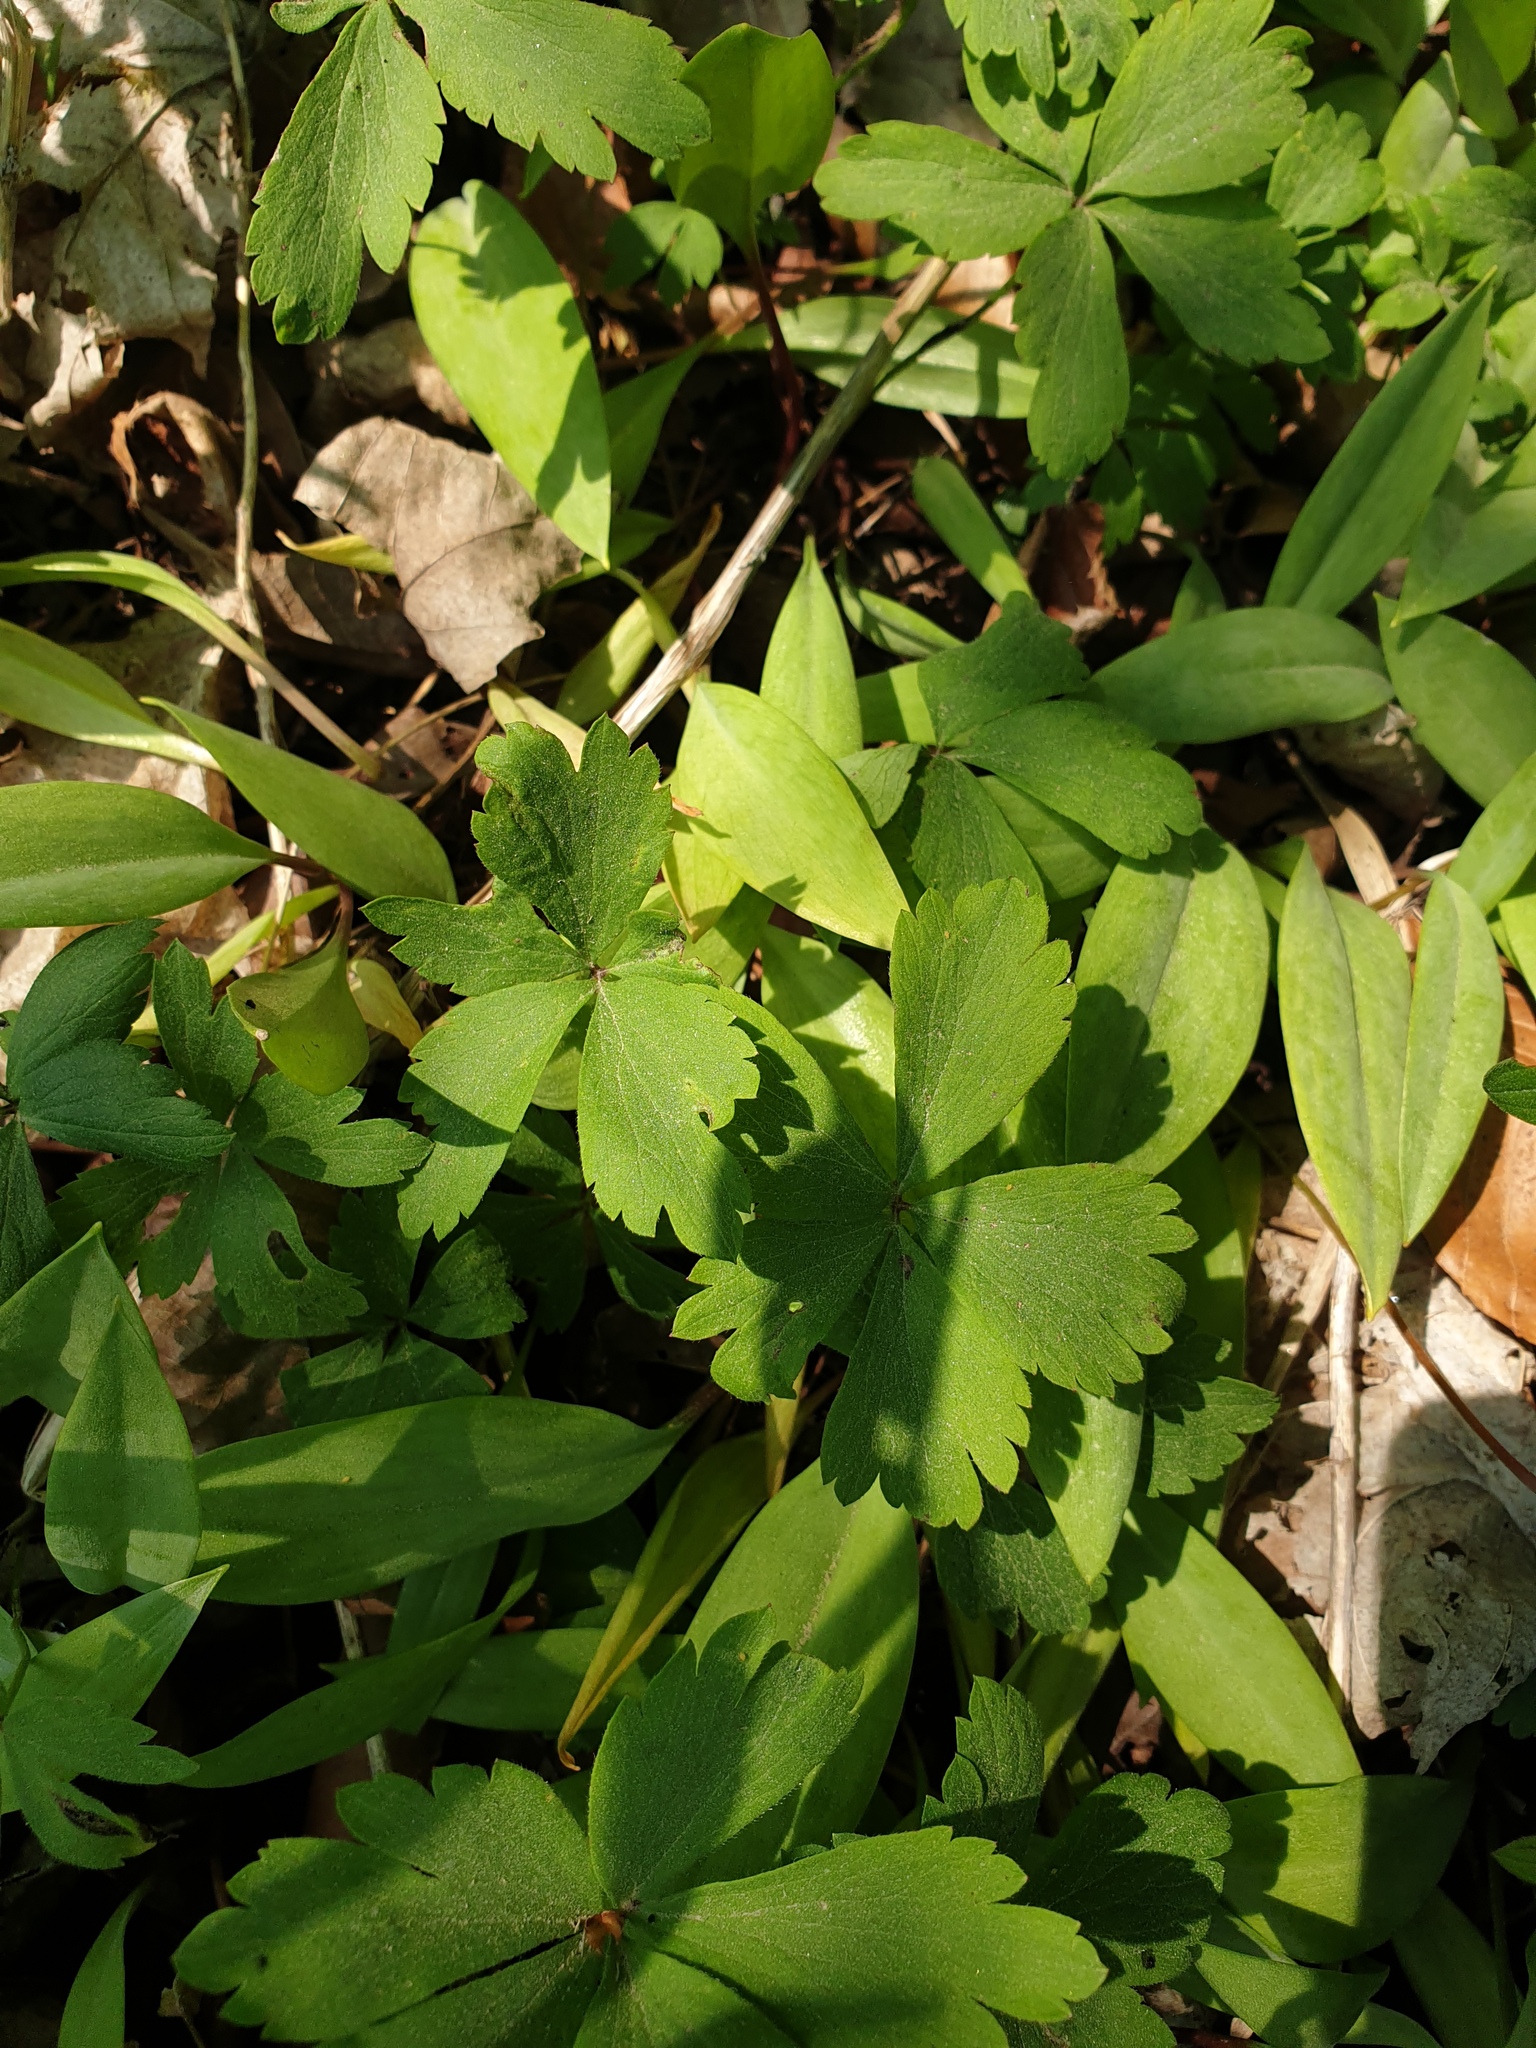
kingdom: Plantae
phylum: Tracheophyta
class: Magnoliopsida
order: Ranunculales
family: Ranunculaceae
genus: Anemone
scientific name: Anemone quinquefolia
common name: Wood anemone
